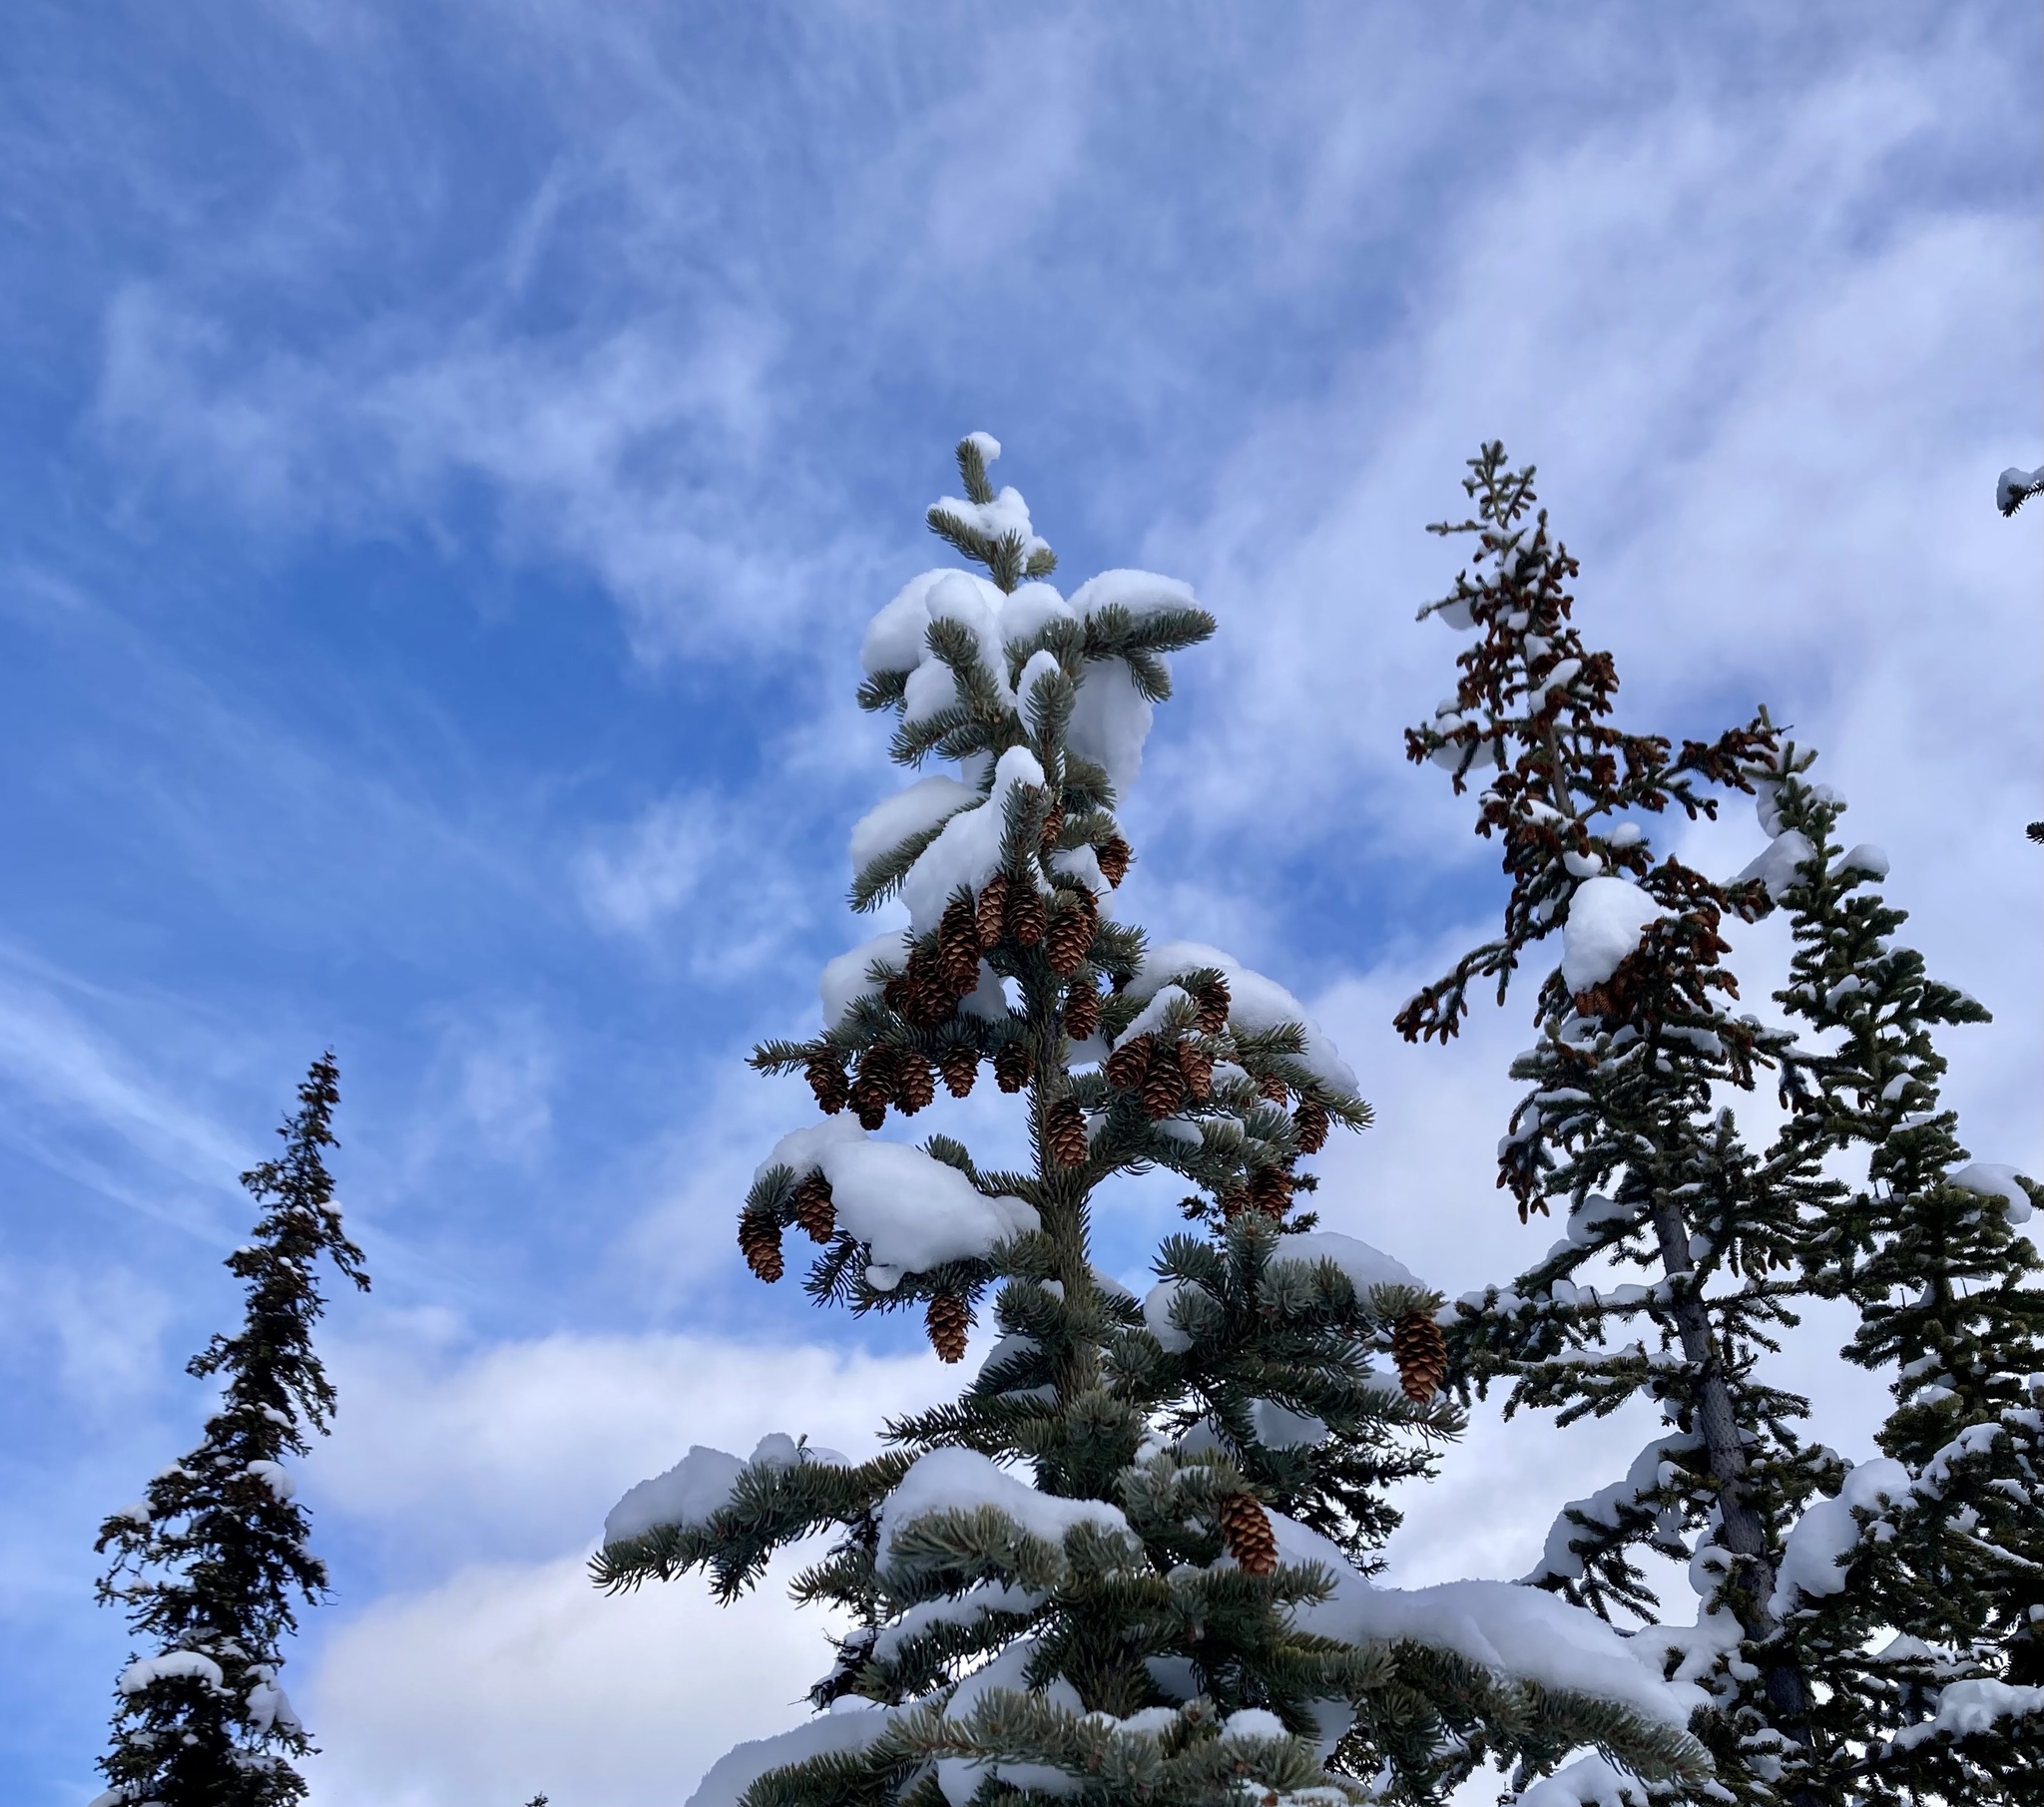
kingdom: Plantae
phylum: Tracheophyta
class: Pinopsida
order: Pinales
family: Pinaceae
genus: Picea
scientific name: Picea engelmannii
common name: Engelmann spruce
